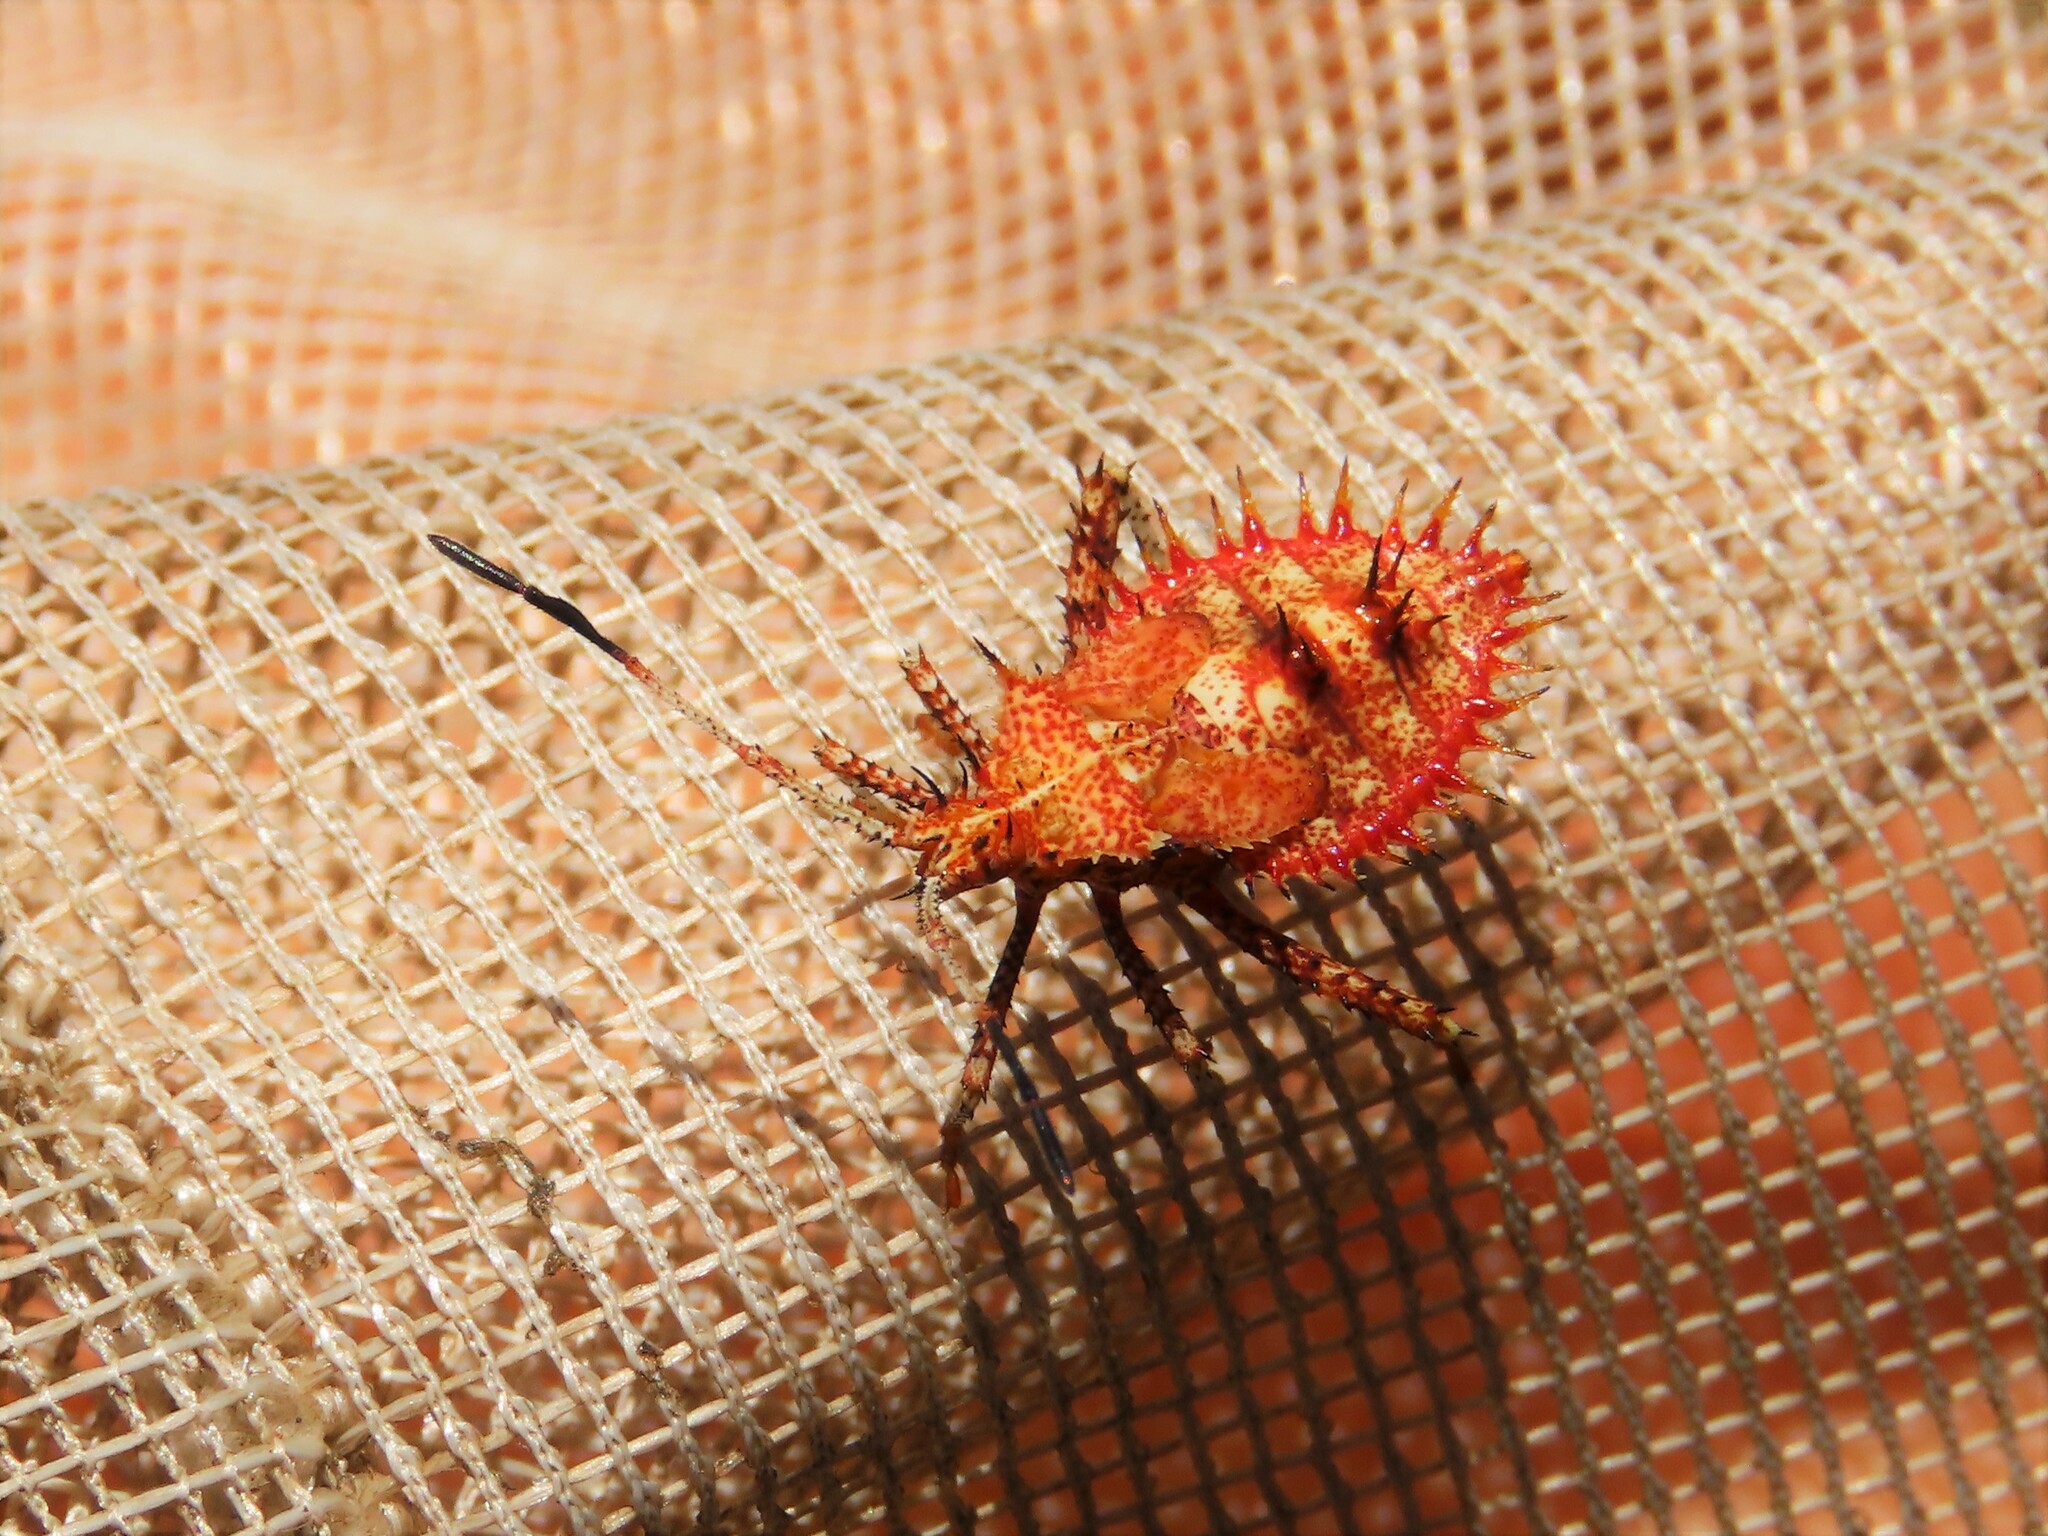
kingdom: Animalia
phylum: Arthropoda
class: Insecta
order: Hemiptera
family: Coreidae
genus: Euthochtha
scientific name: Euthochtha galeator
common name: Helmeted squash bug
